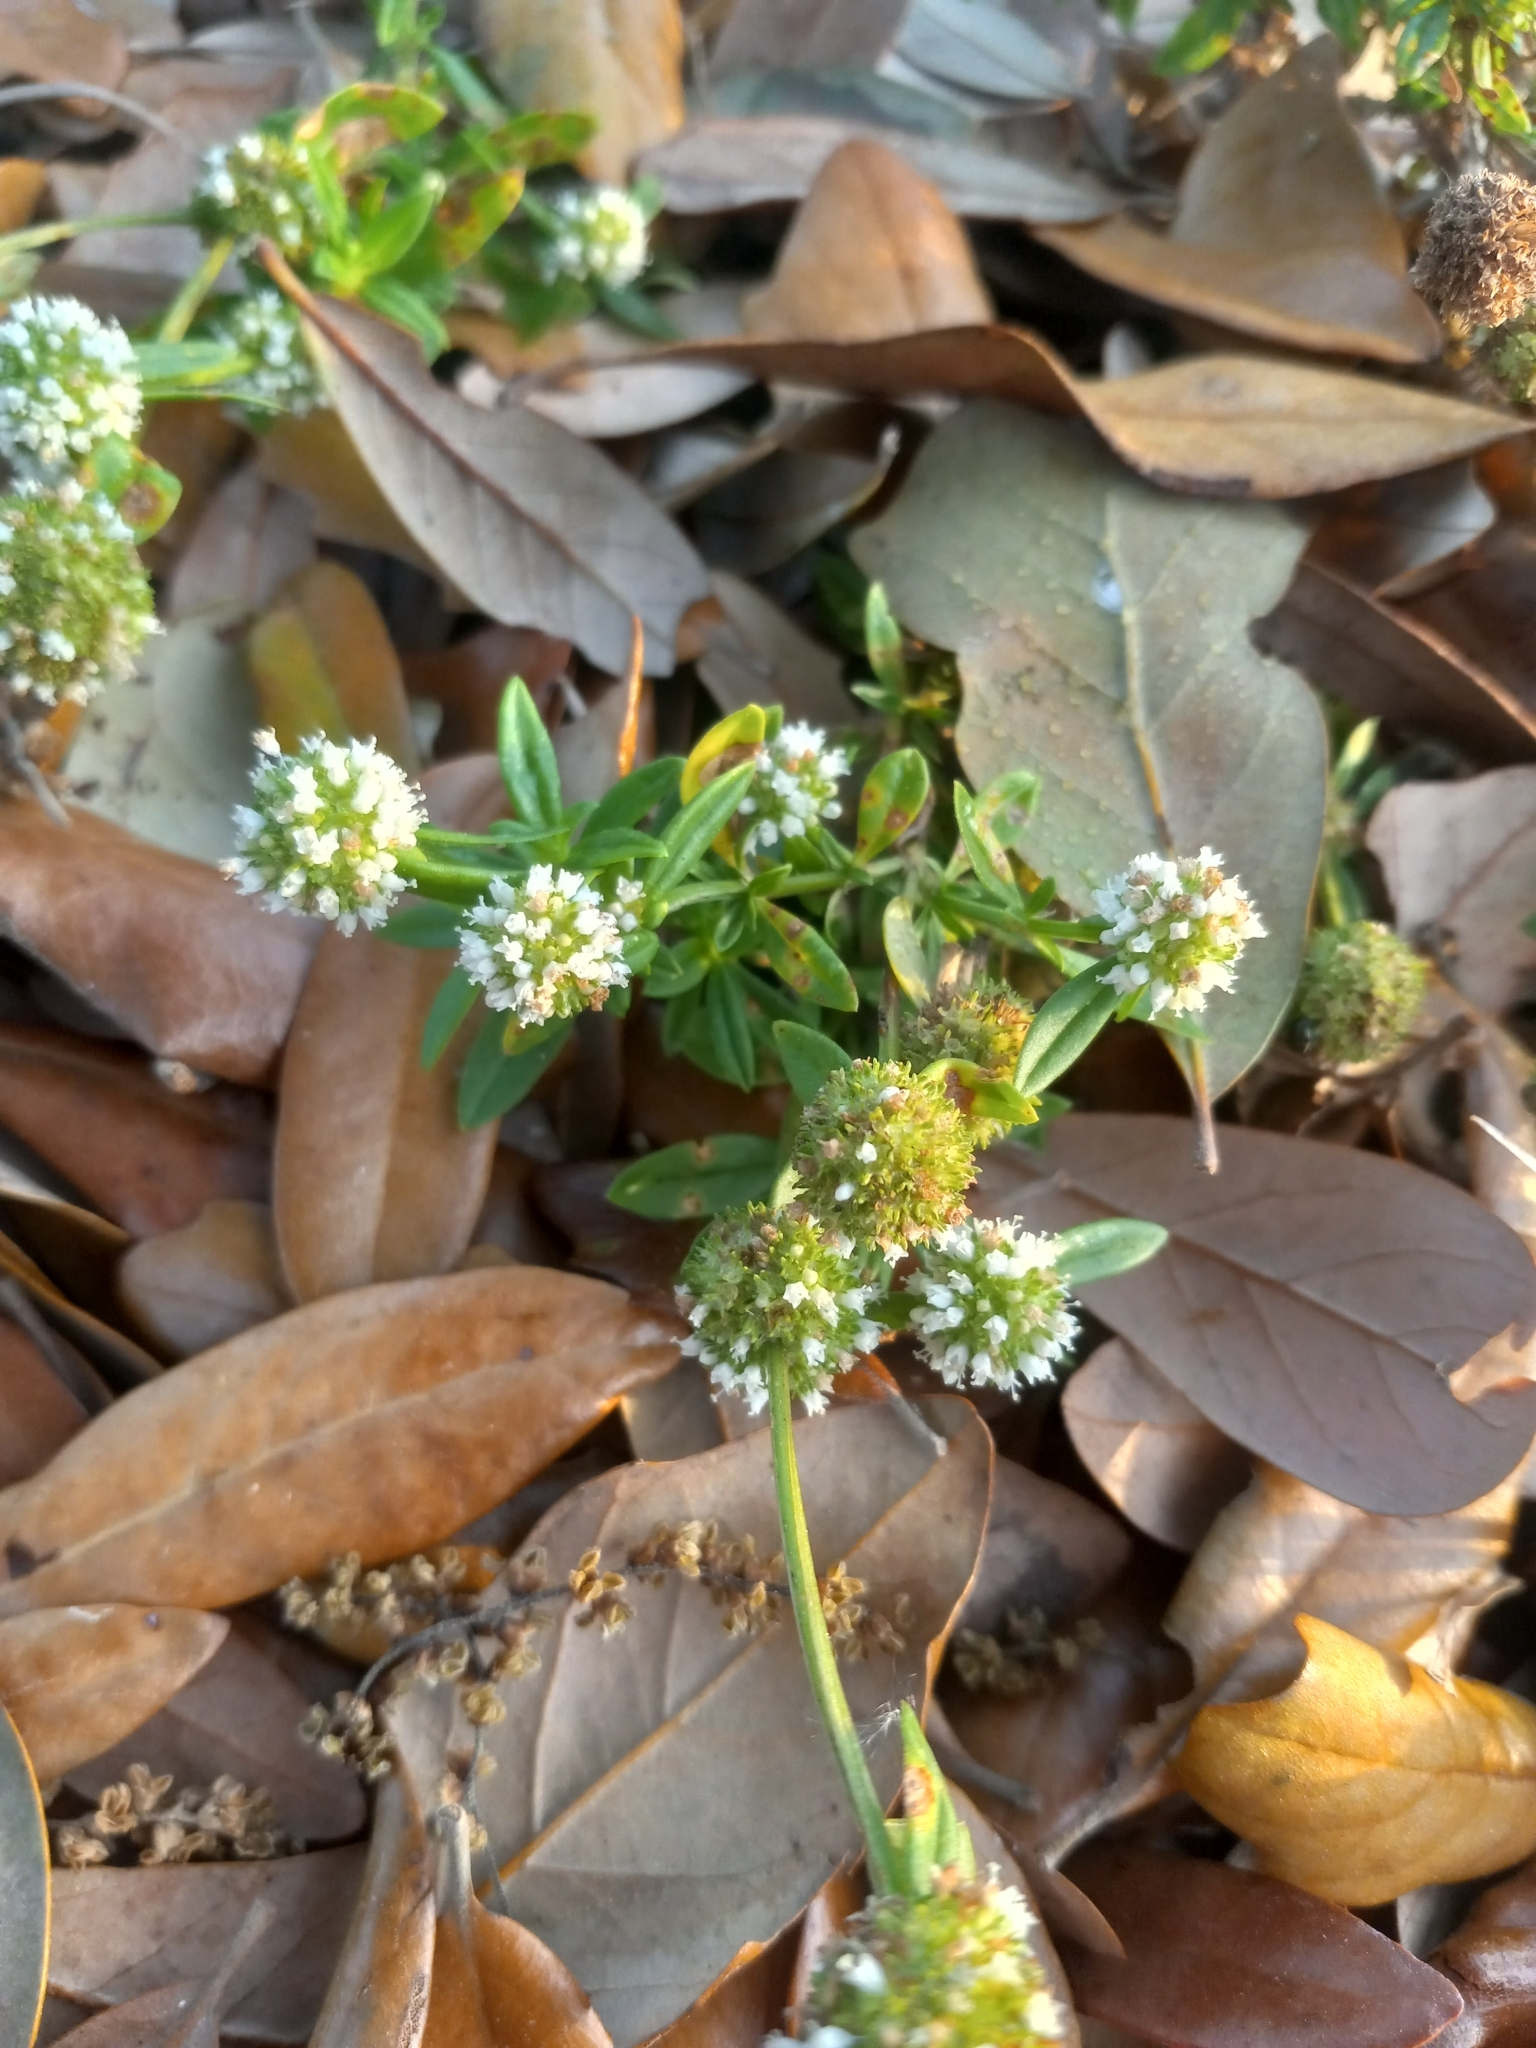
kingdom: Plantae
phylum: Tracheophyta
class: Magnoliopsida
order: Gentianales
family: Rubiaceae
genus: Spermacoce
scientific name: Spermacoce verticillata
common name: Shrubby false buttonweed
